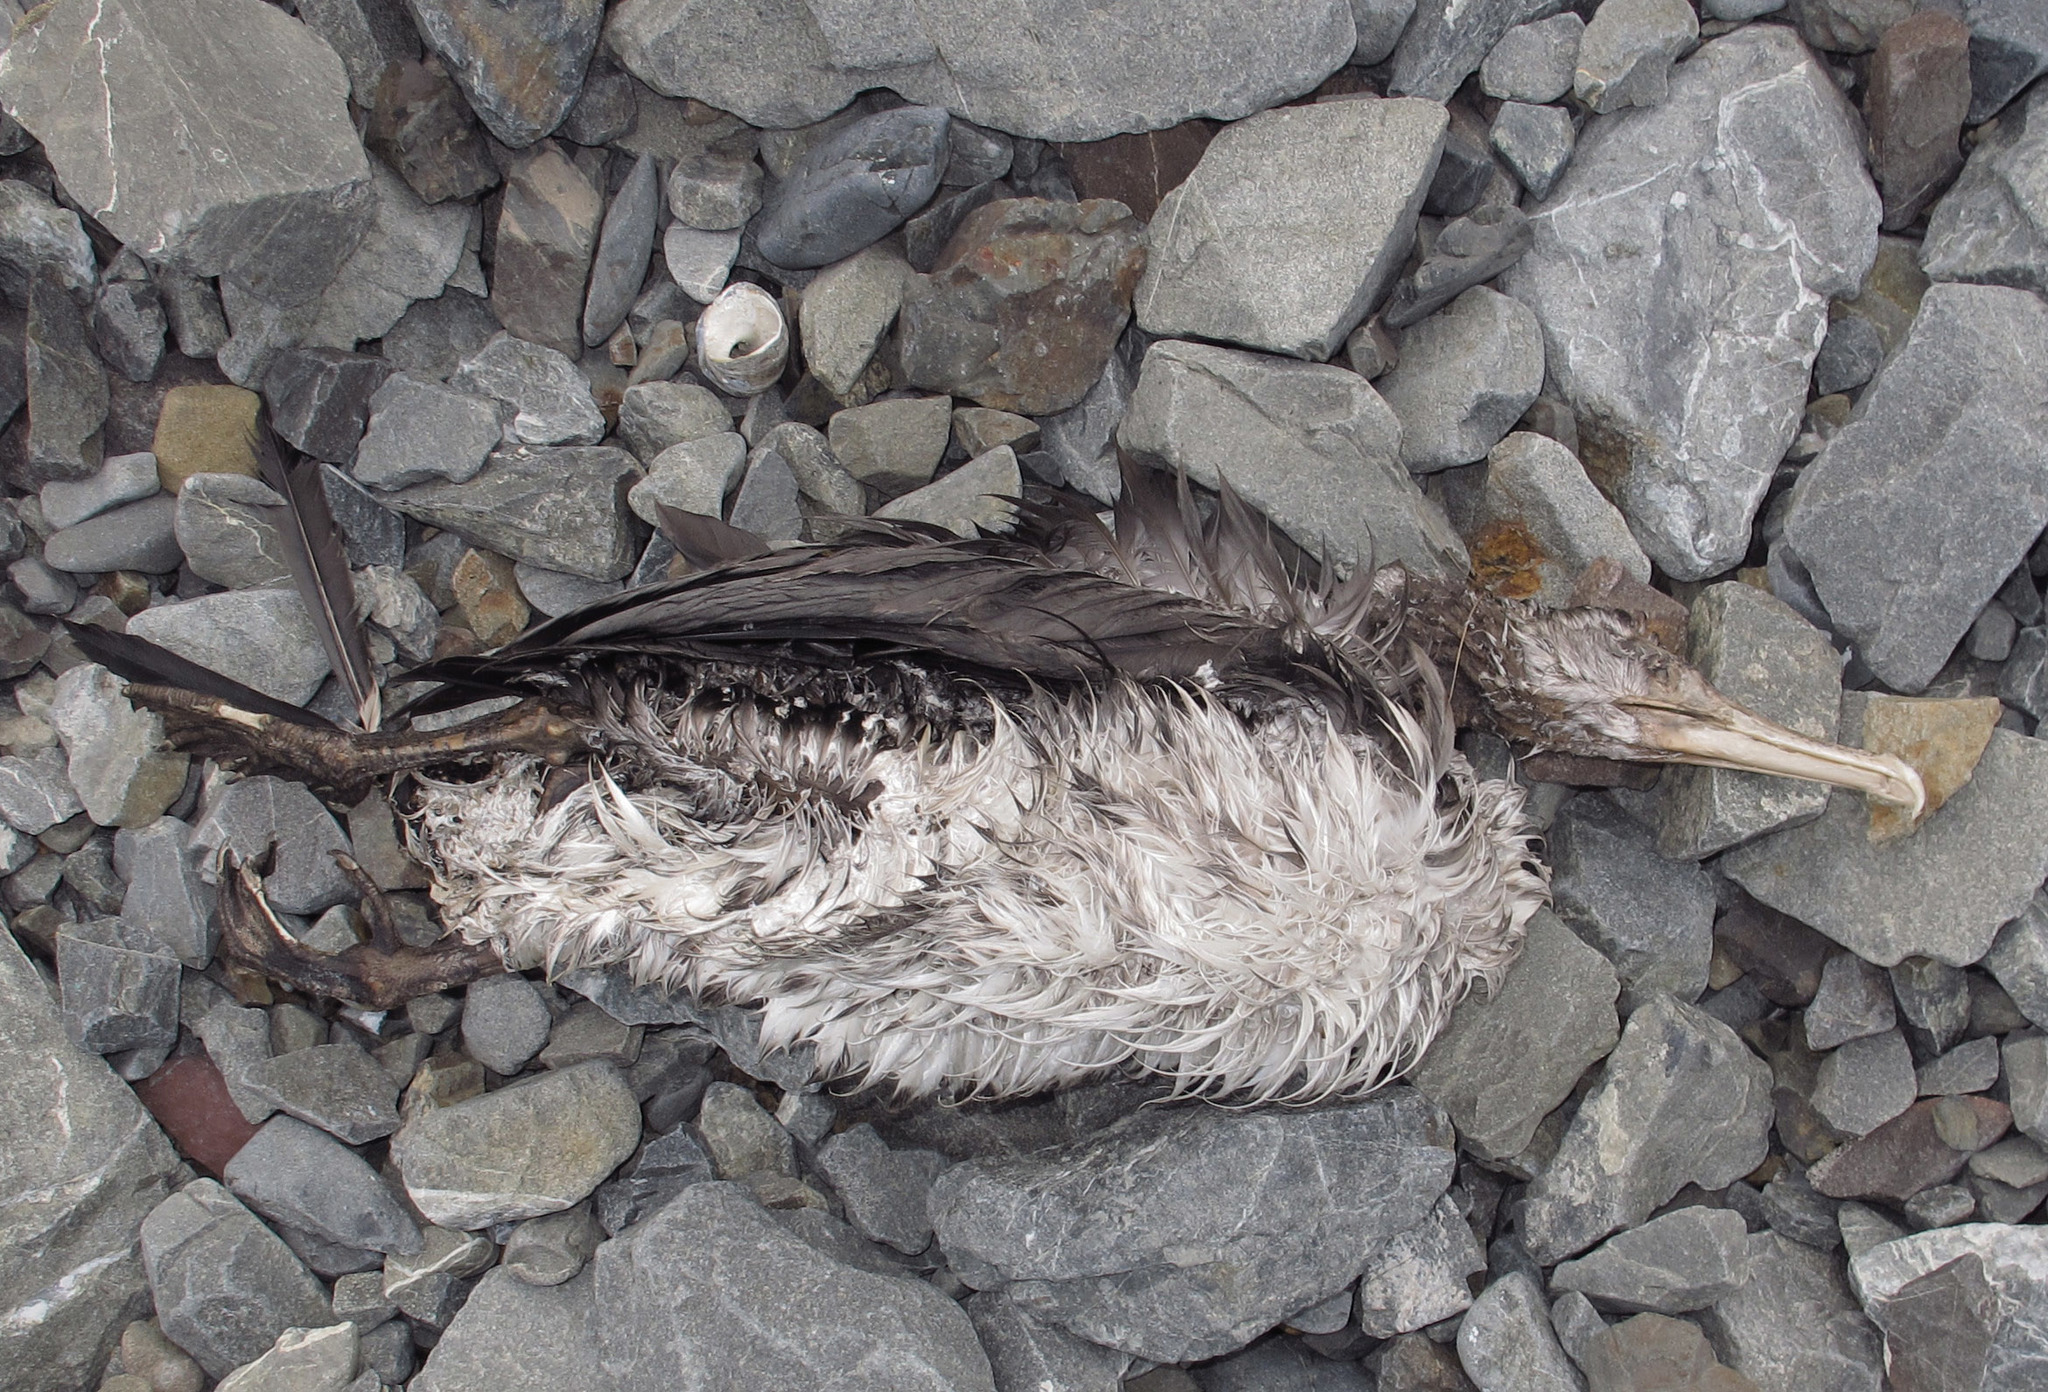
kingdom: Animalia
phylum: Chordata
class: Aves
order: Suliformes
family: Phalacrocoracidae
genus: Phalacrocorax
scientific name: Phalacrocorax varius
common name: Pied cormorant
